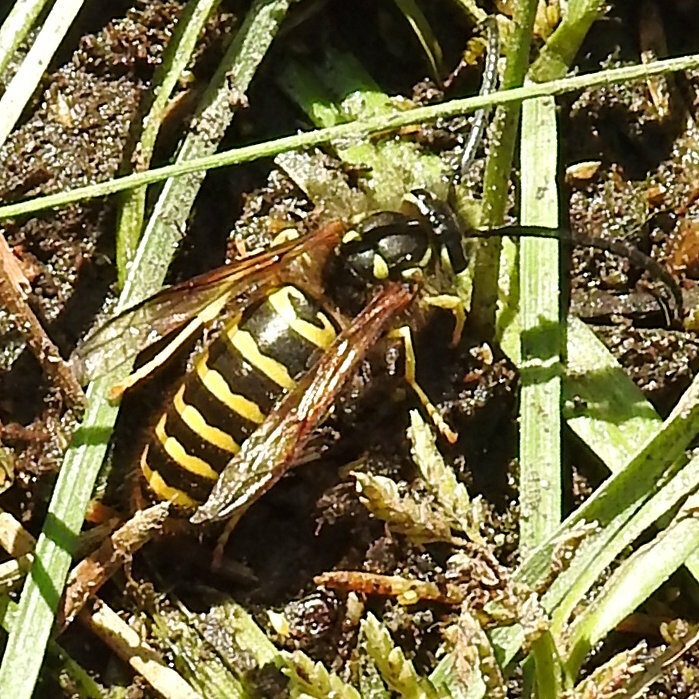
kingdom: Animalia
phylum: Arthropoda
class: Insecta
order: Hymenoptera
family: Vespidae
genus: Vespula
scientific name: Vespula maculifrons
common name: Eastern yellowjacket
